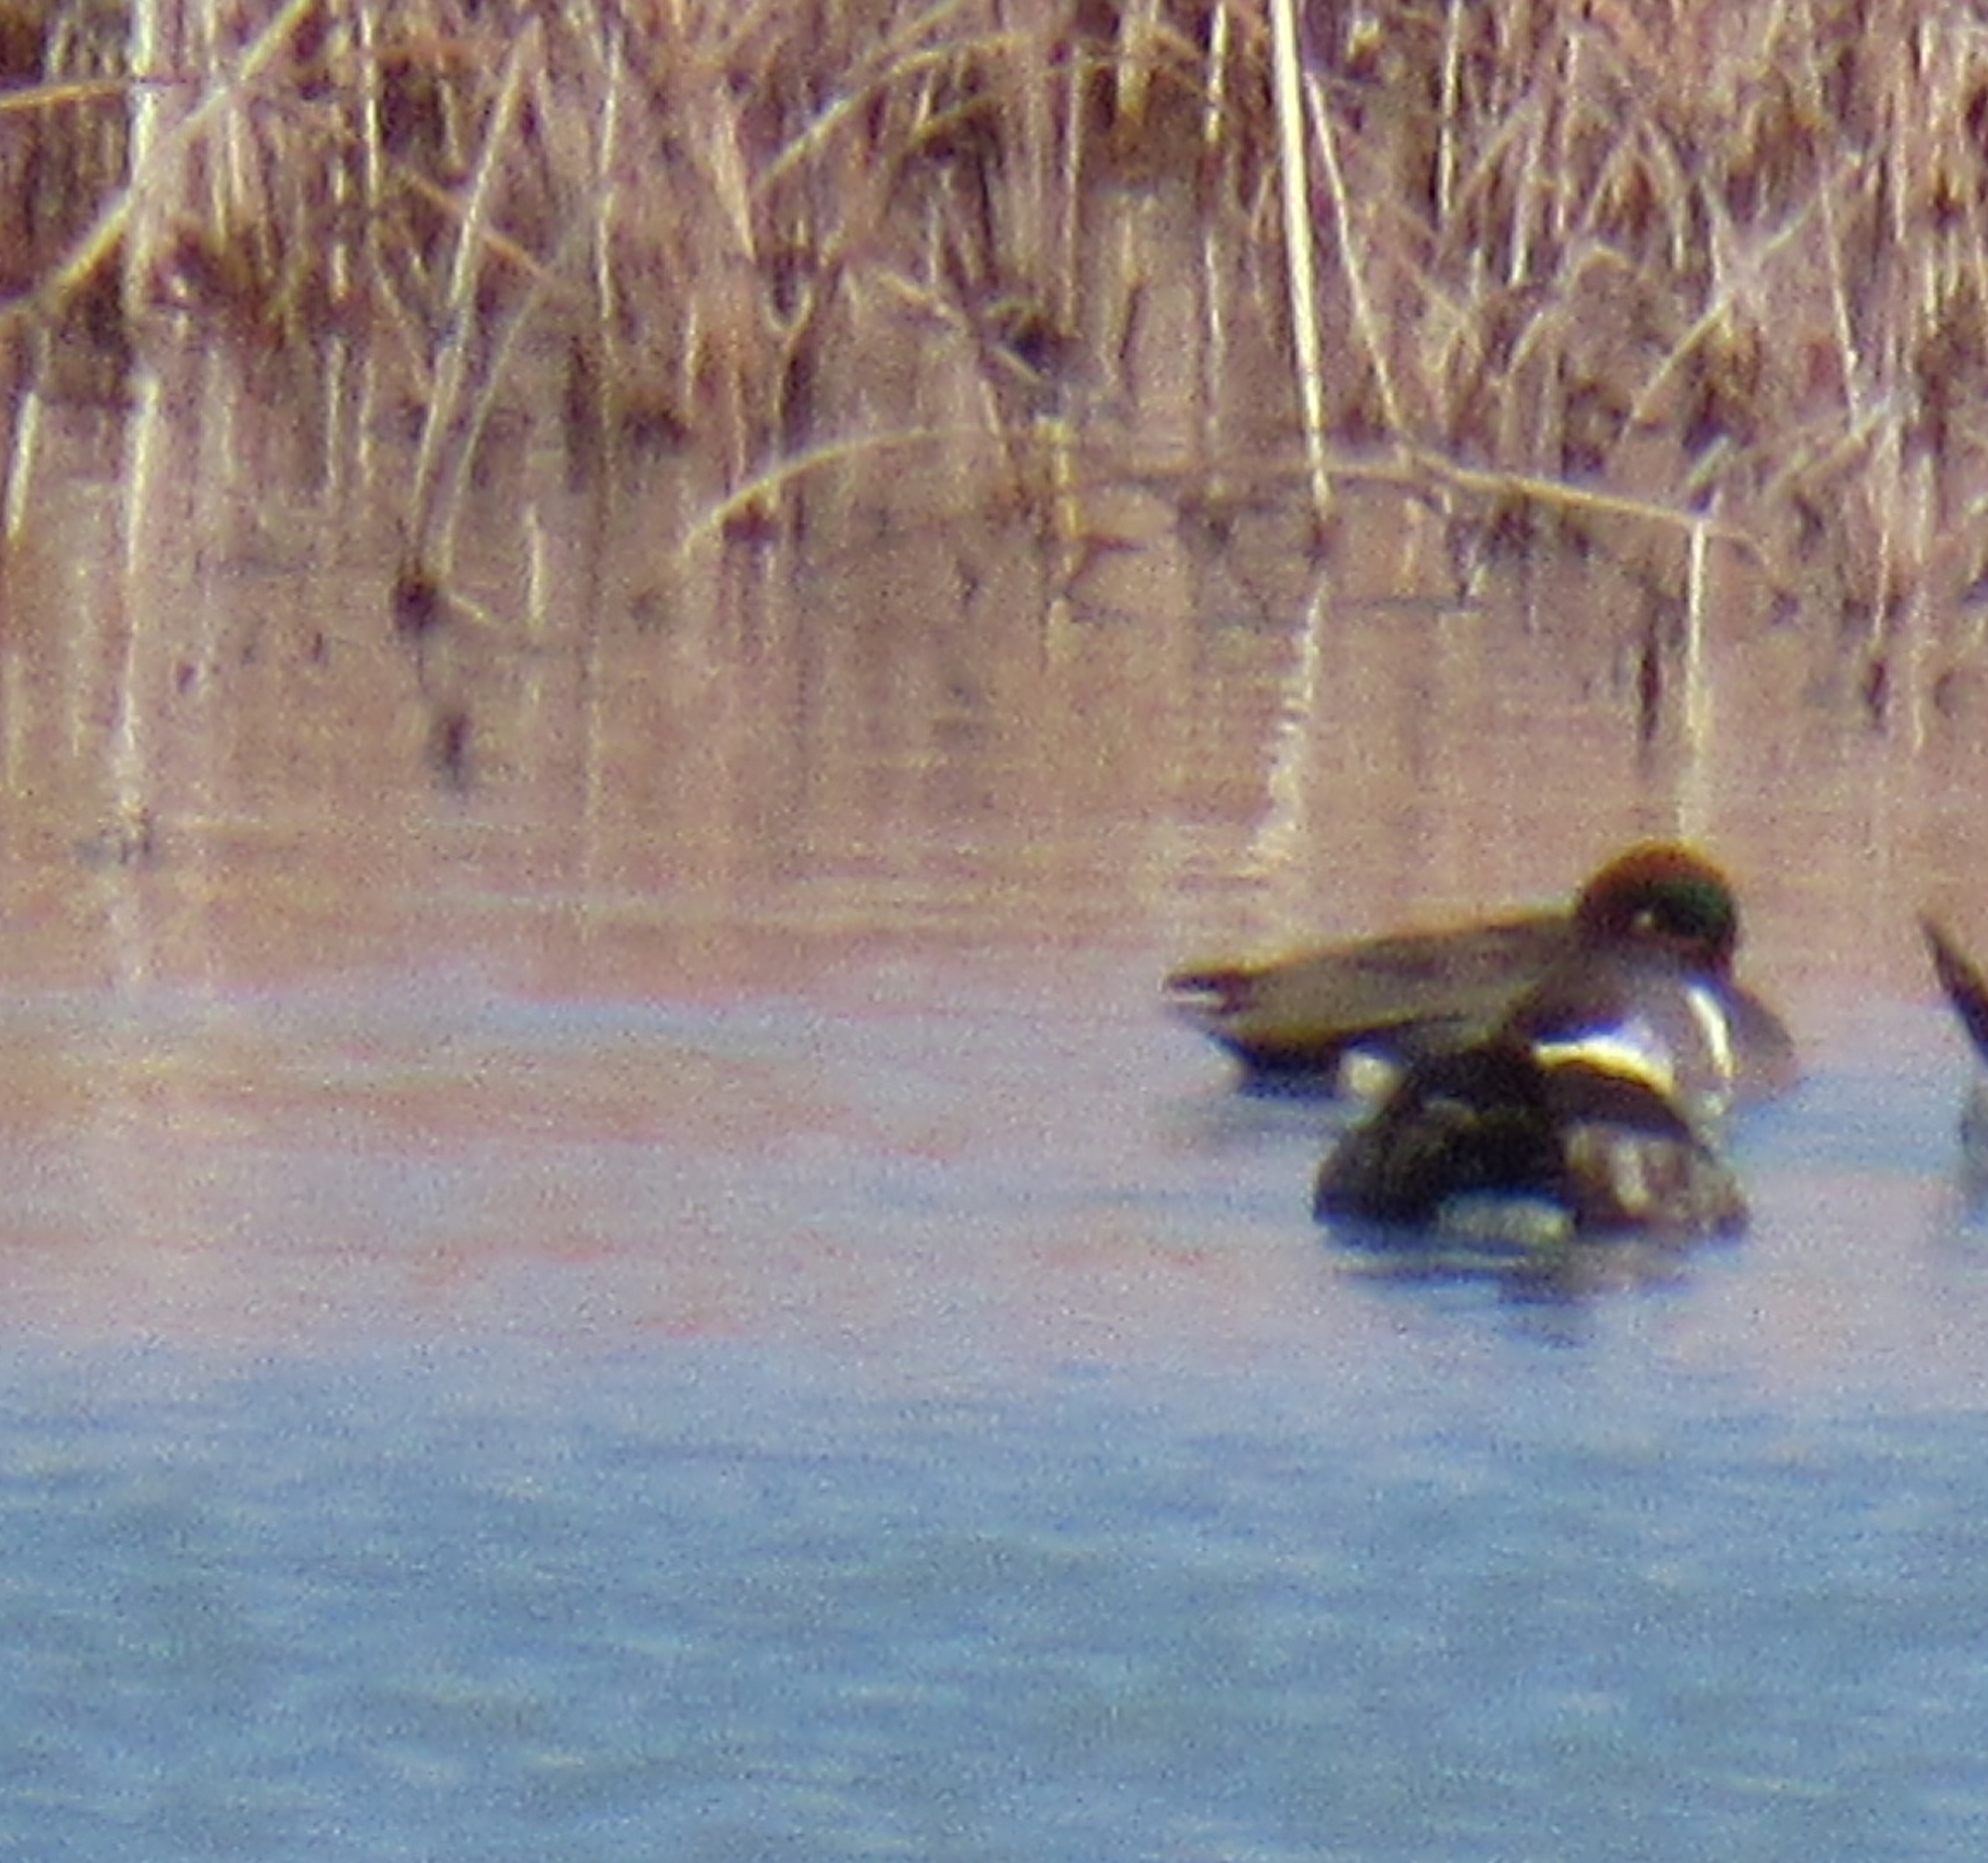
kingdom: Animalia
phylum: Chordata
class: Aves
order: Anseriformes
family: Anatidae
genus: Anas
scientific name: Anas crecca
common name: Eurasian teal
